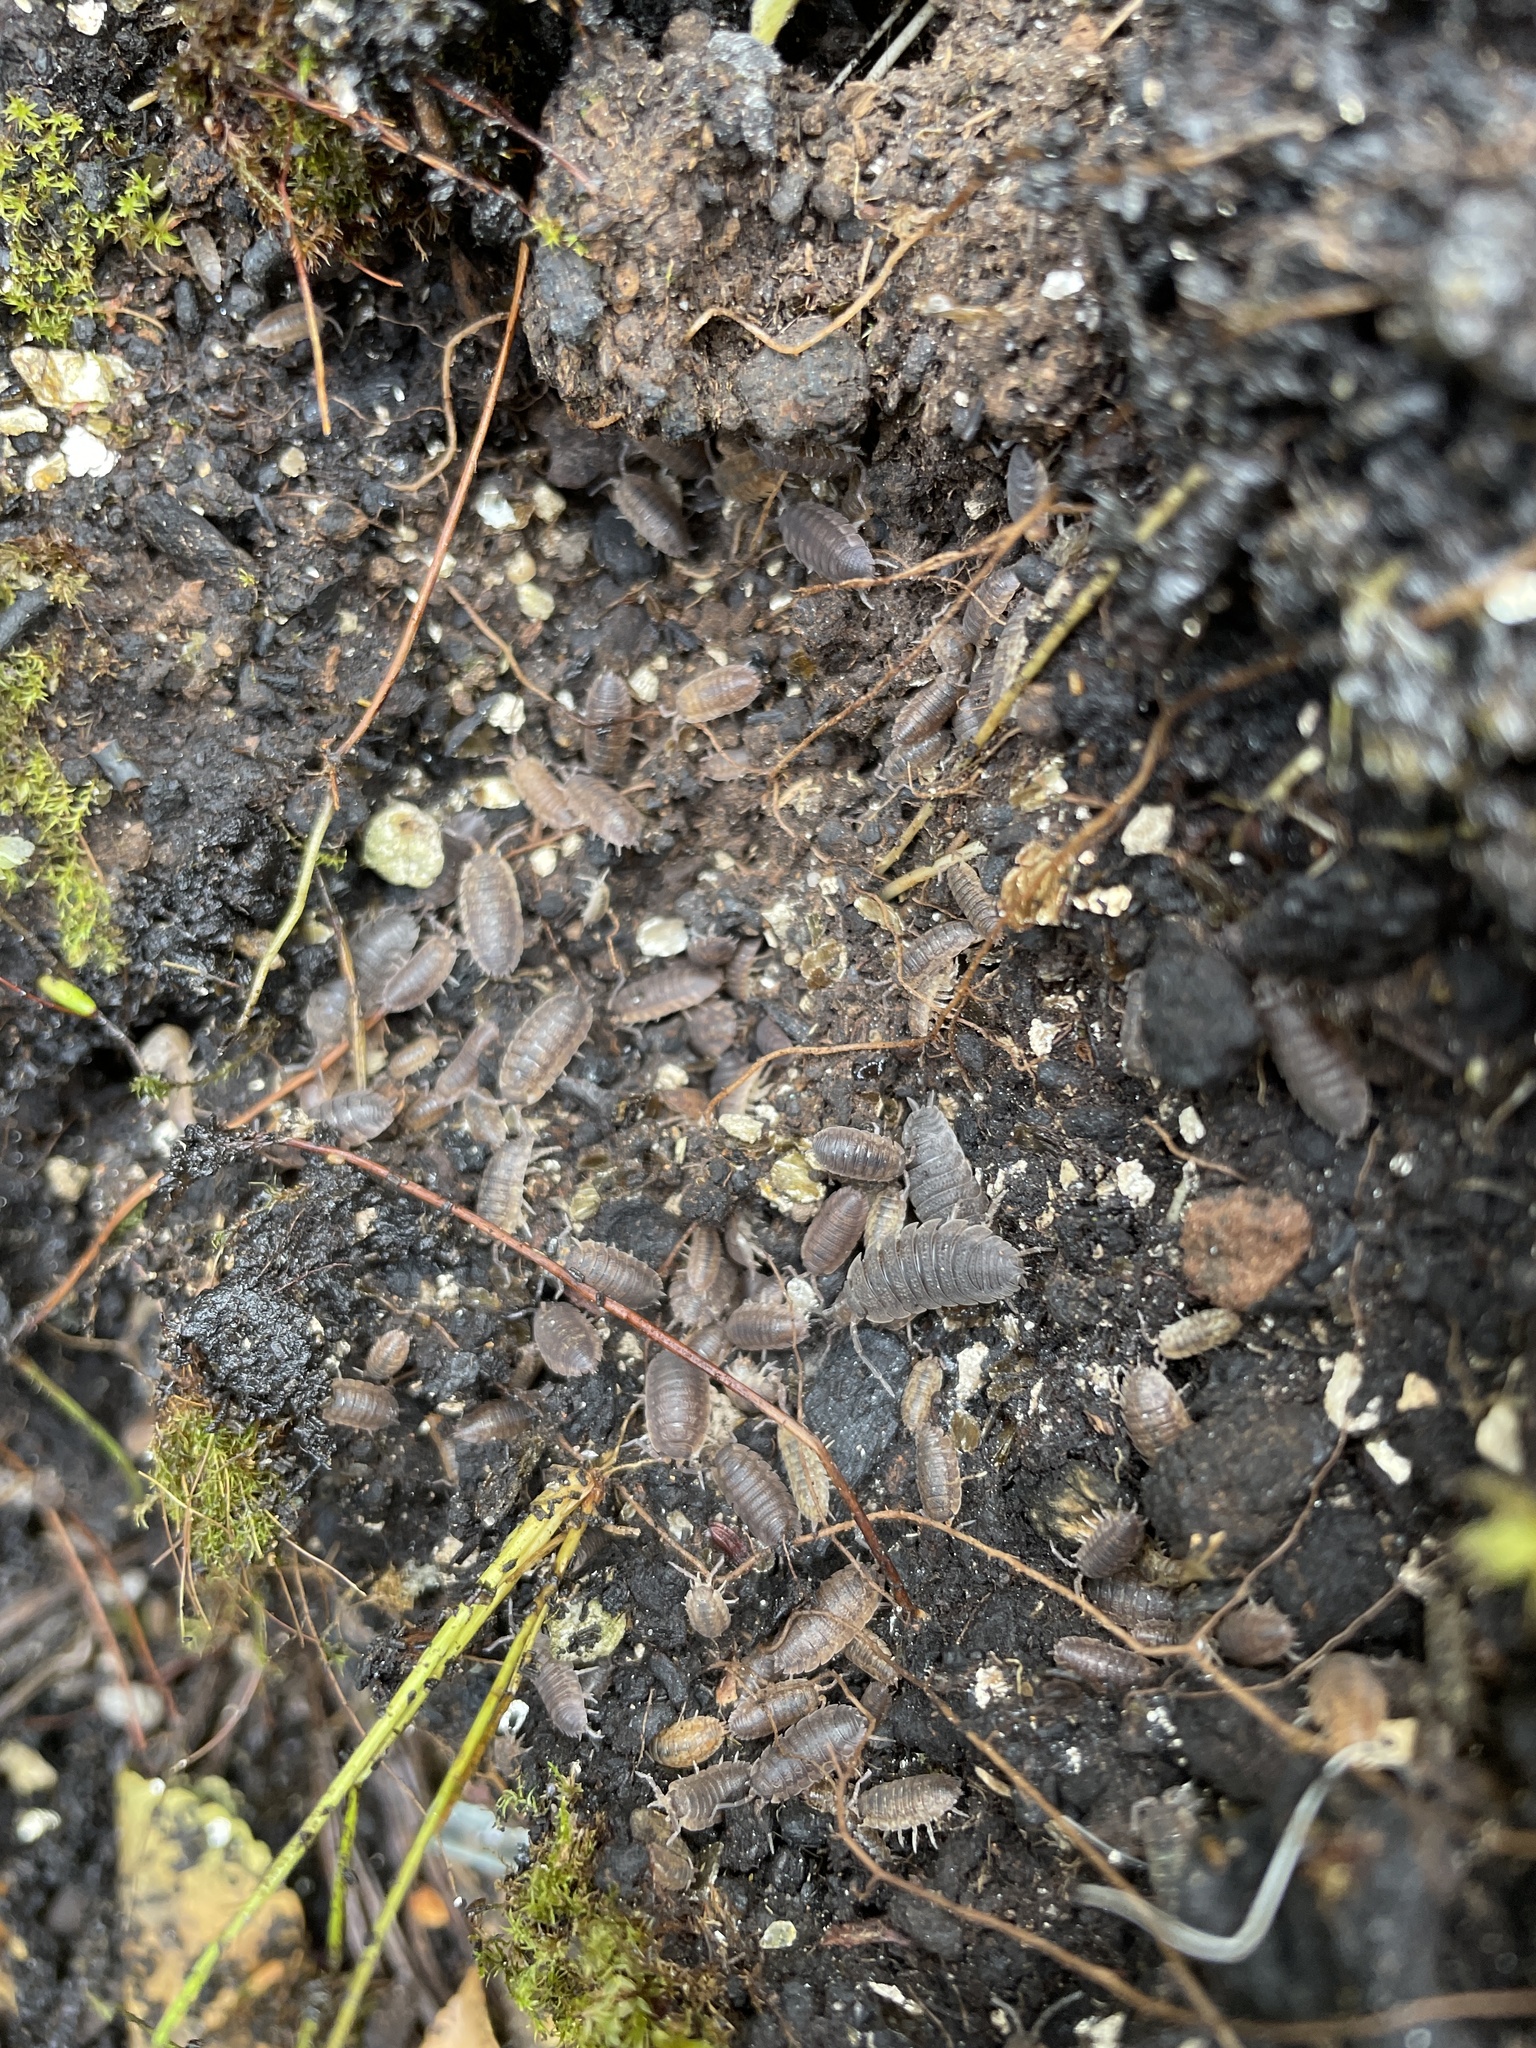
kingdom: Animalia
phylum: Arthropoda
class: Malacostraca
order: Isopoda
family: Porcellionidae
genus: Porcellio
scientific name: Porcellio scaber
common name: Common rough woodlouse
